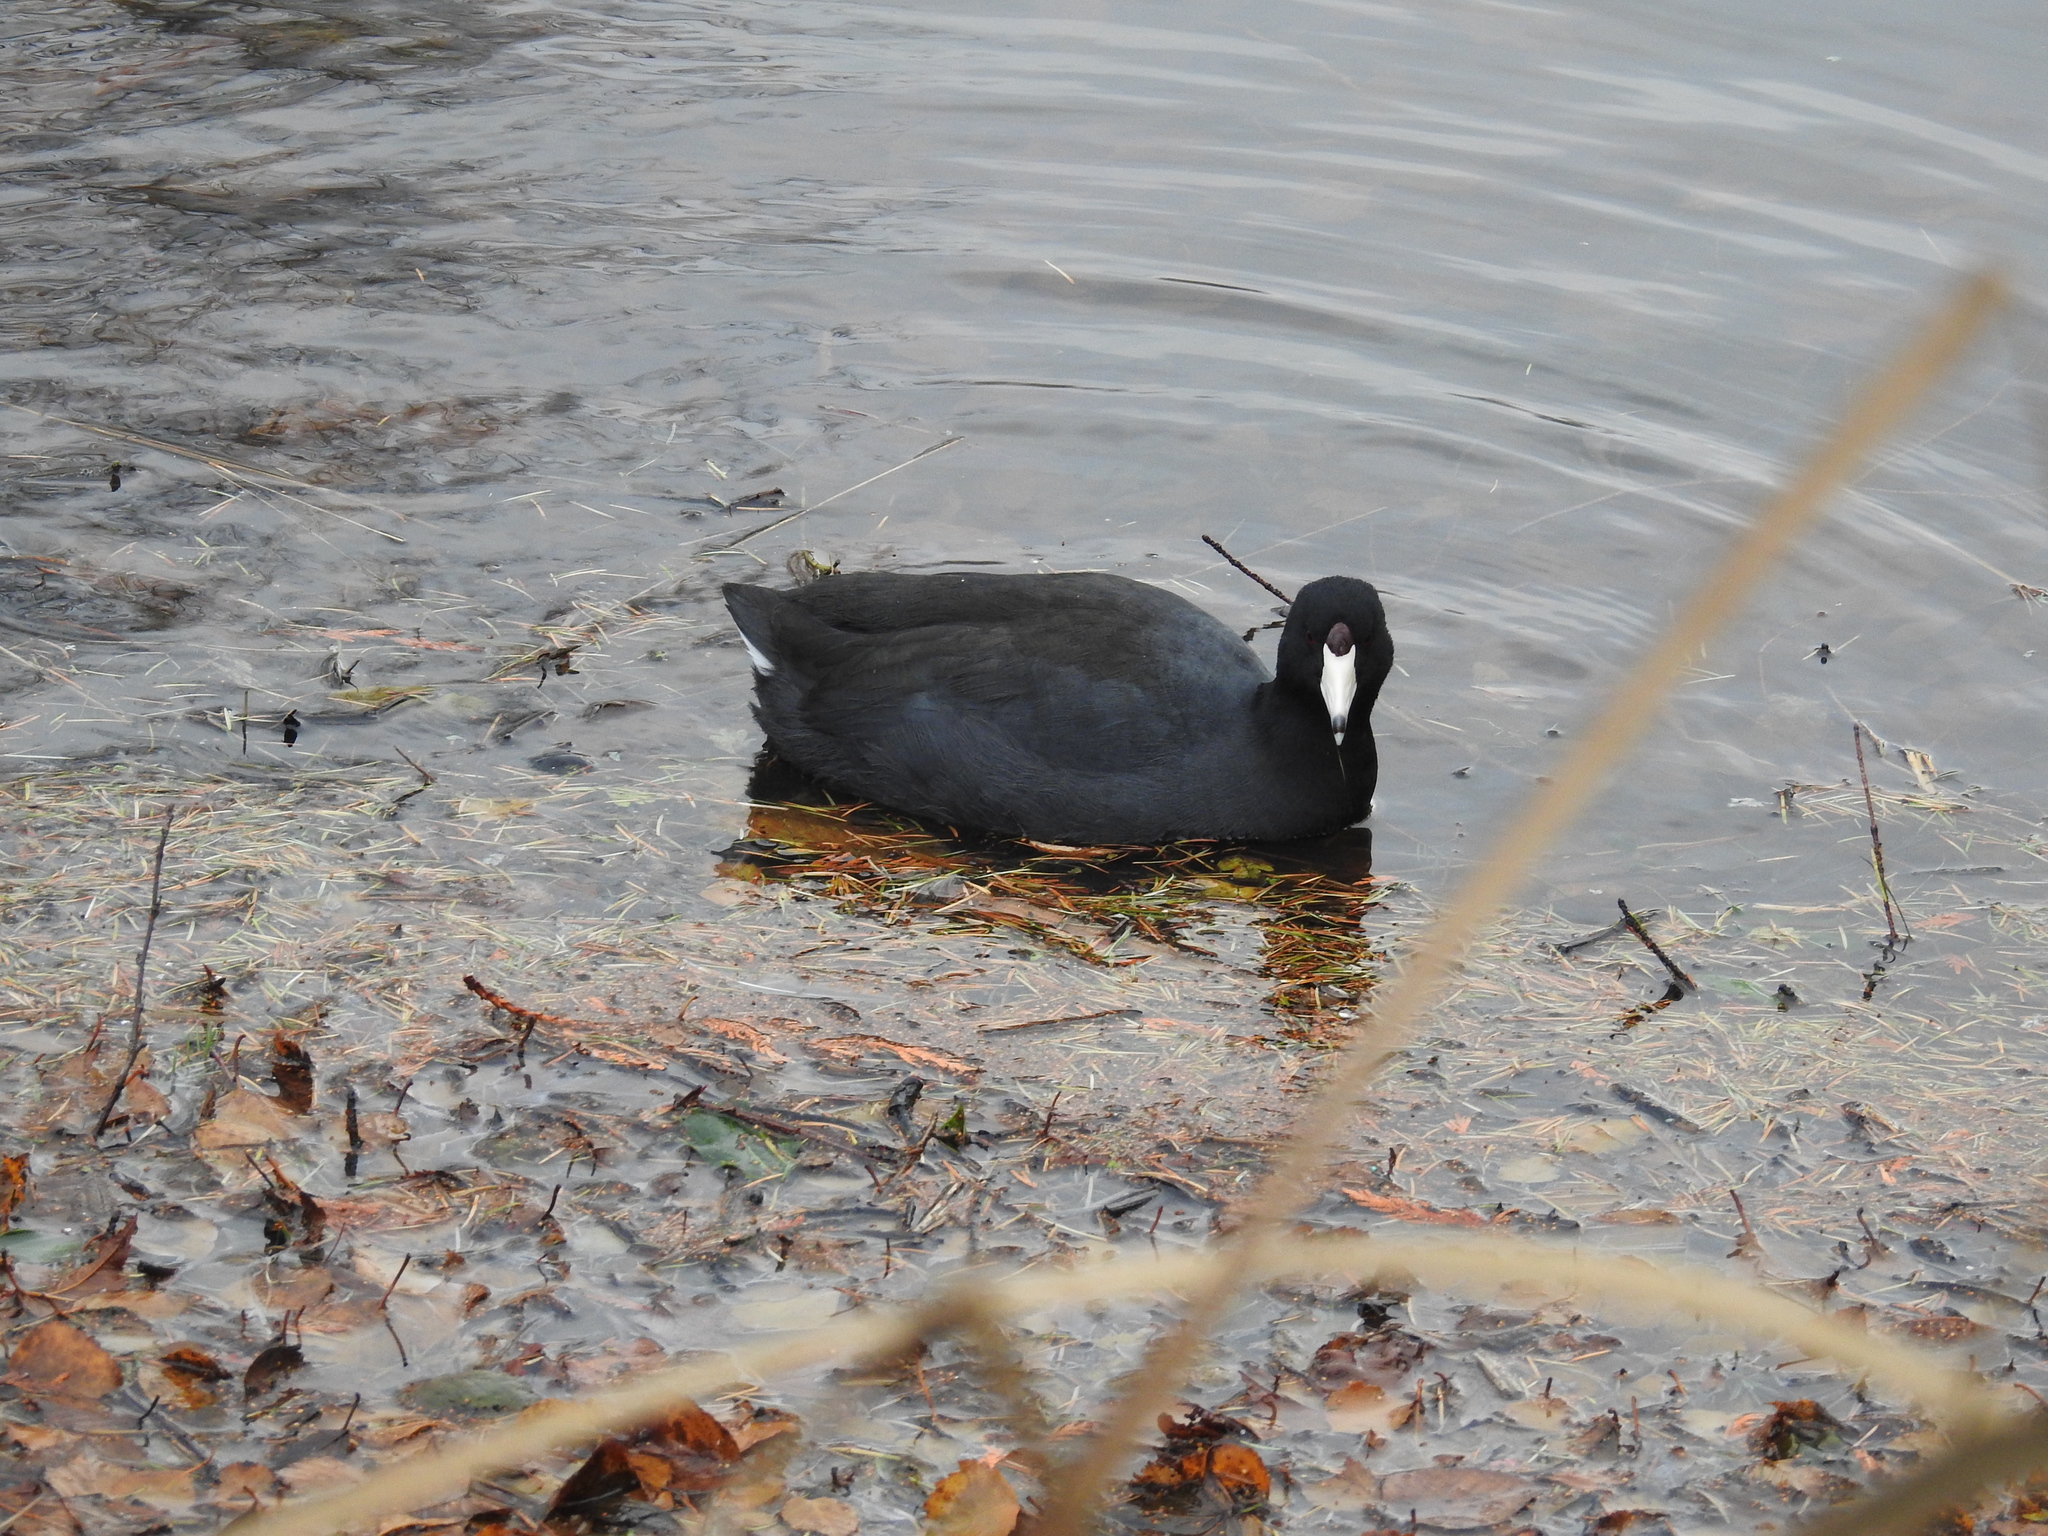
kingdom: Animalia
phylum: Chordata
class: Aves
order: Gruiformes
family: Rallidae
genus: Fulica
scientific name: Fulica americana
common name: American coot
